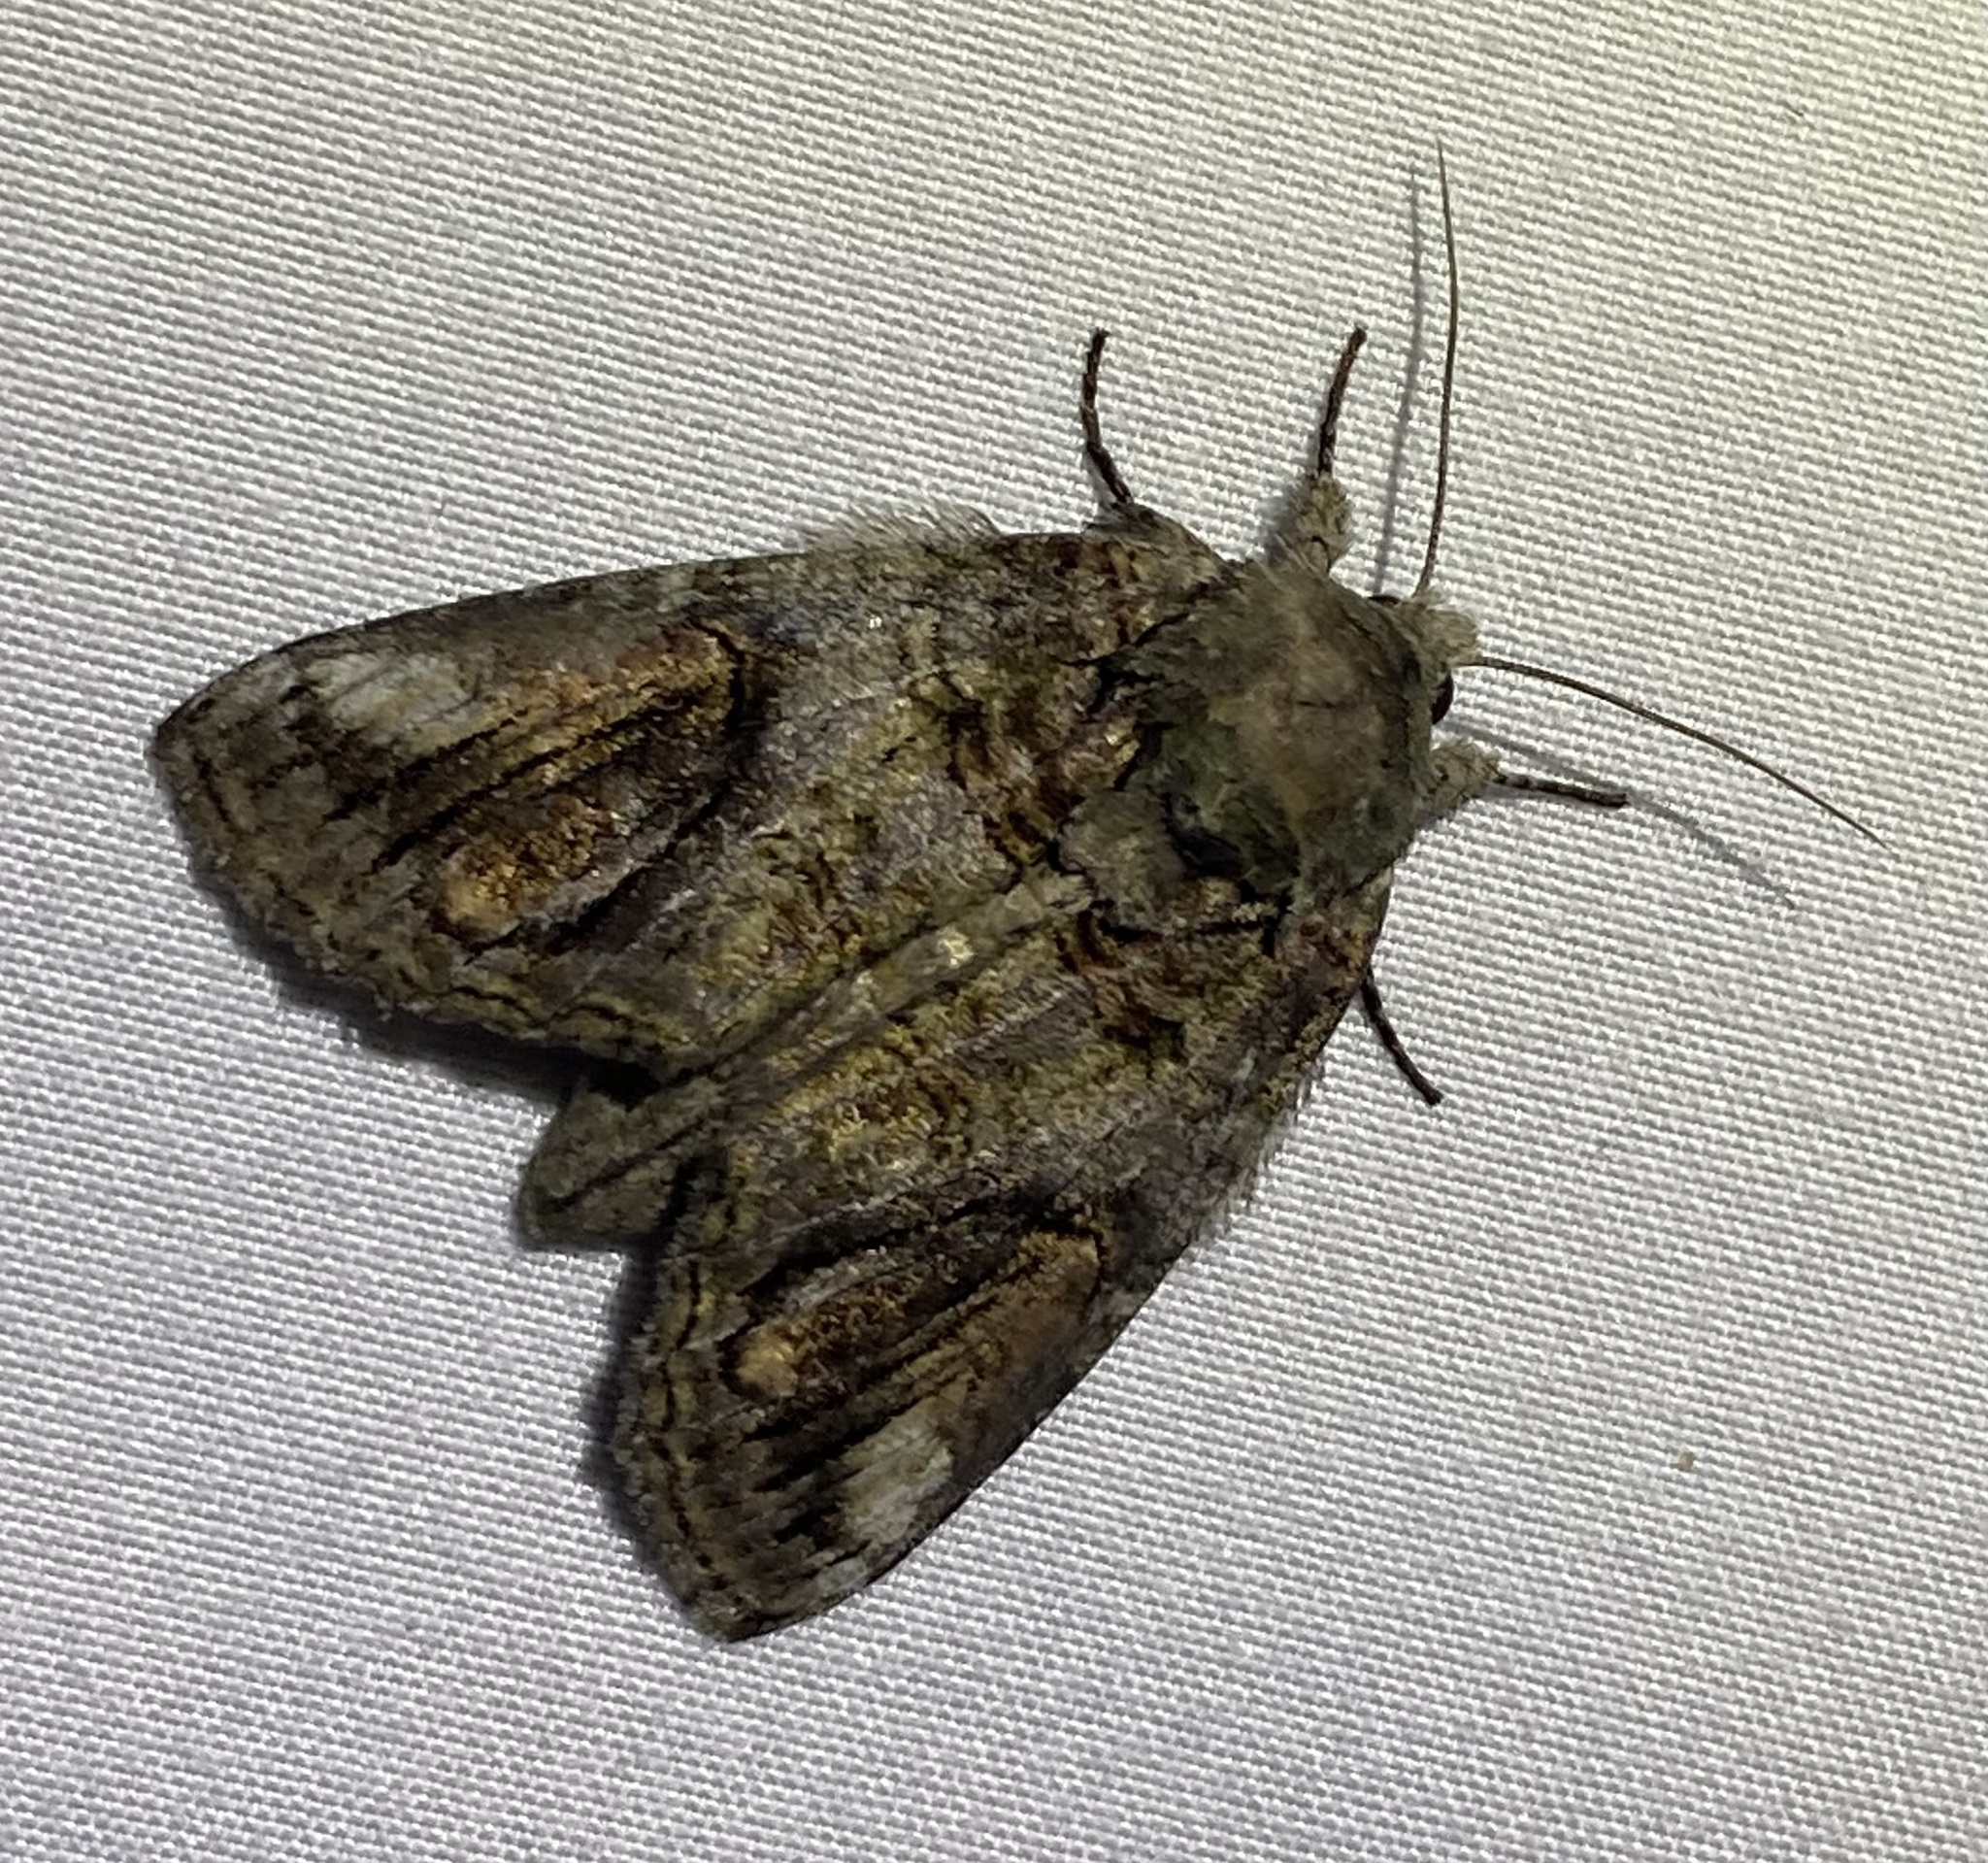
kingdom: Animalia
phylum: Arthropoda
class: Insecta
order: Lepidoptera
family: Notodontidae
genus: Heterocampa
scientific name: Heterocampa obliqua
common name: Oblique heterocampa
